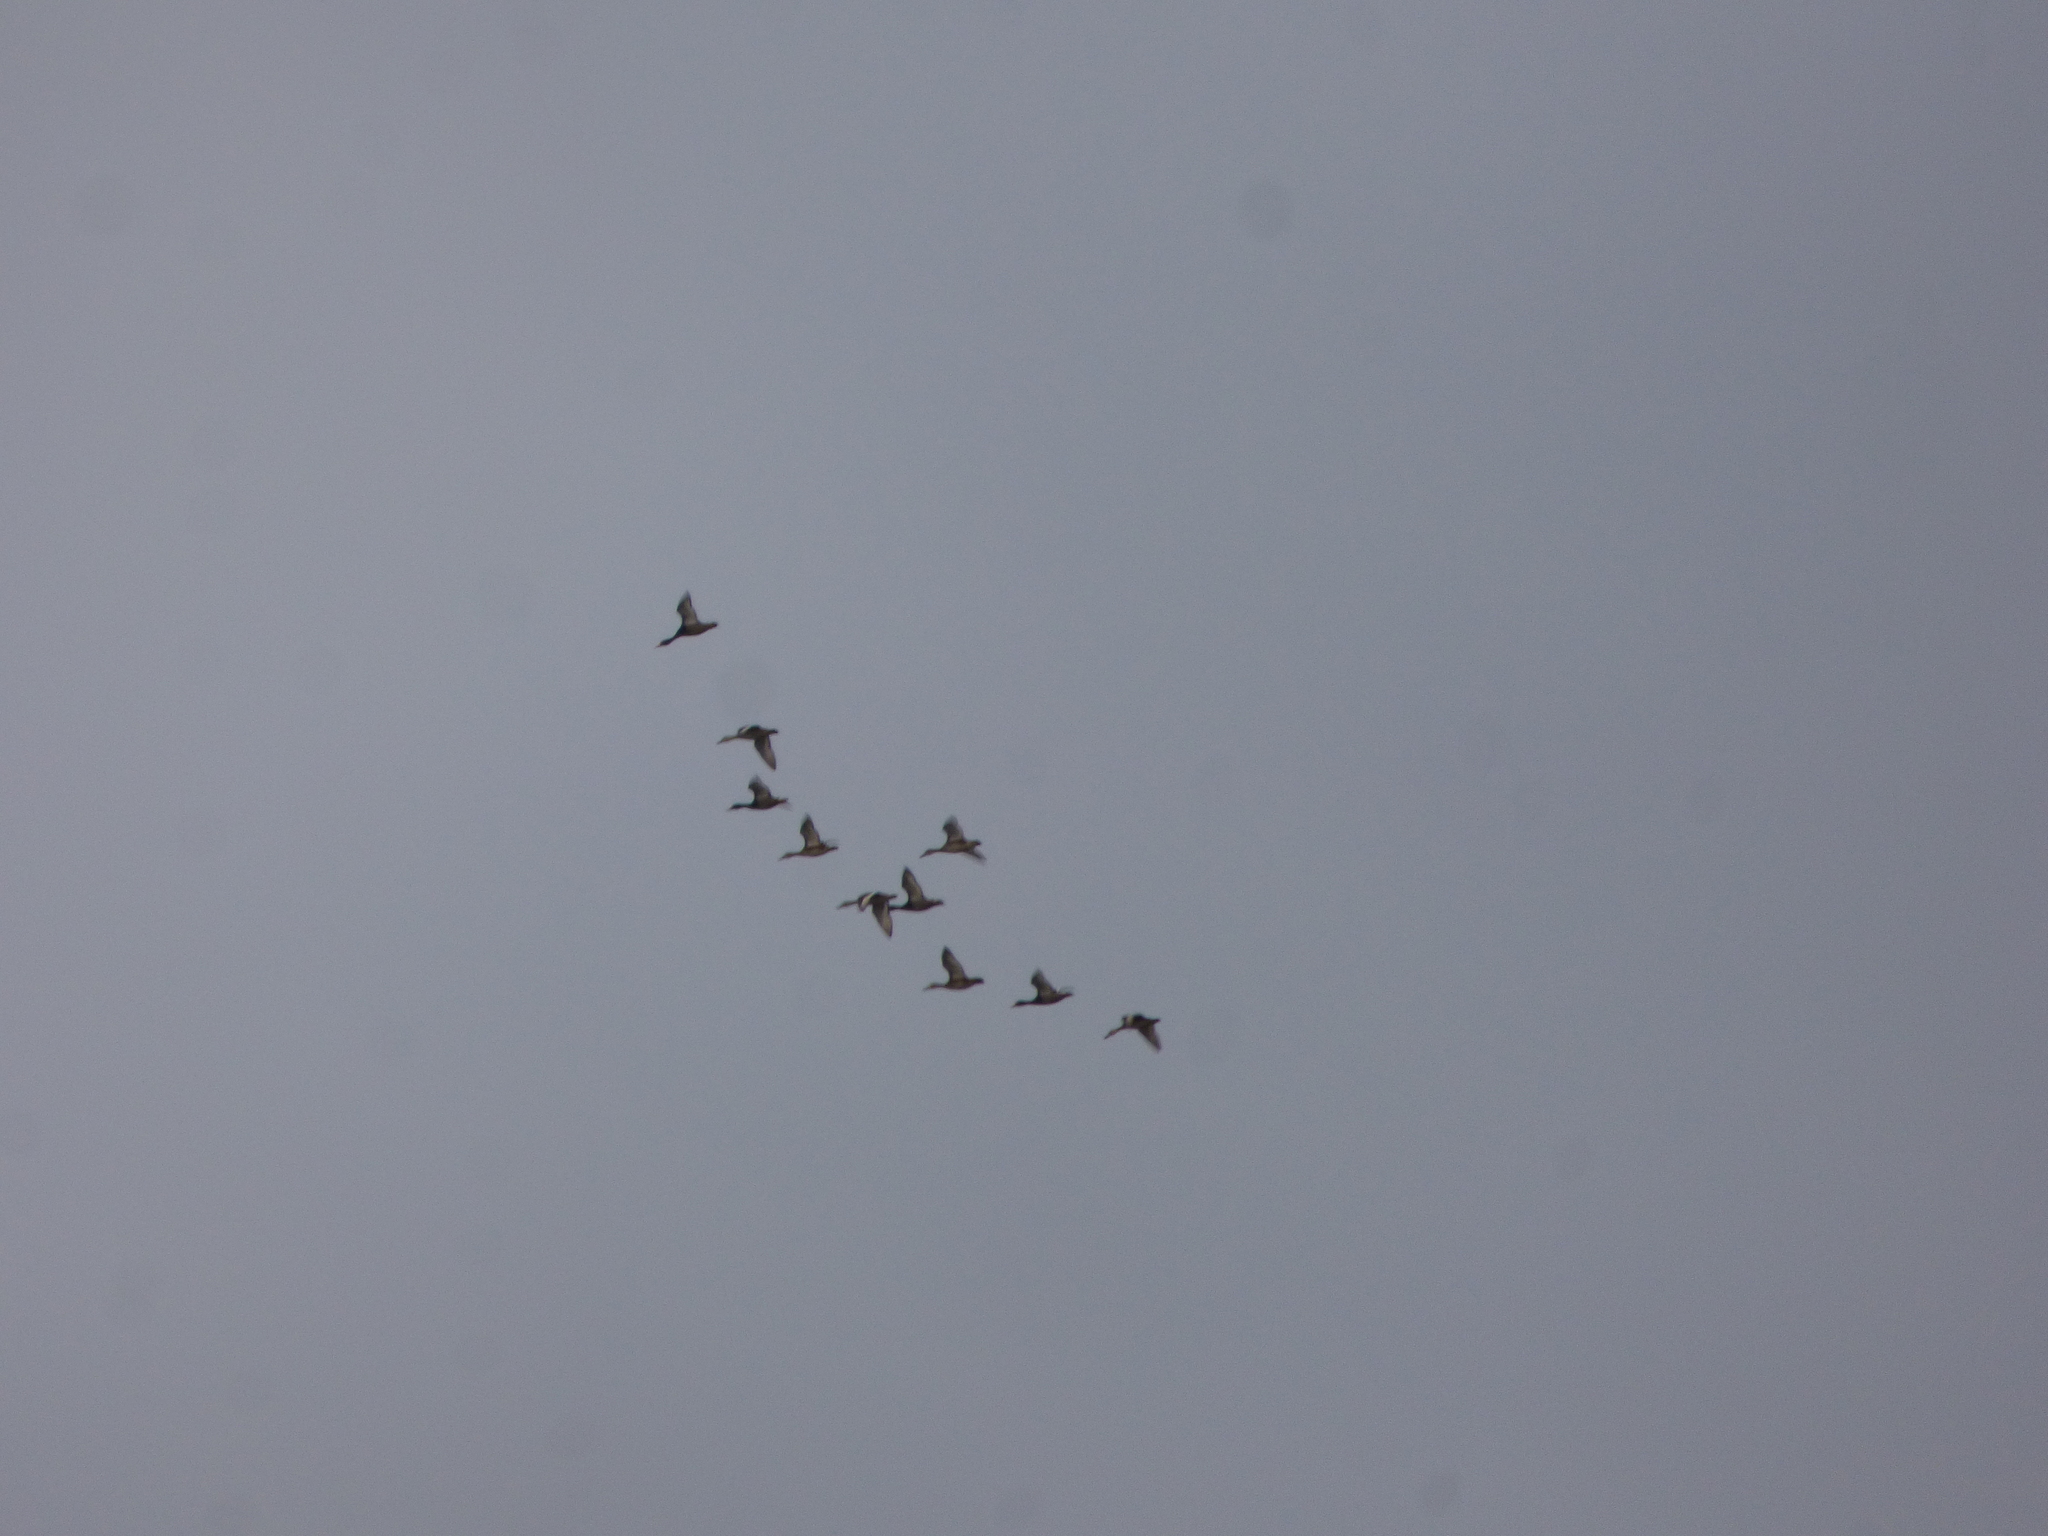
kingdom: Animalia
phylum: Chordata
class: Aves
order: Anseriformes
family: Anatidae
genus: Netta
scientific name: Netta peposaca
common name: Rosy-billed pochard
